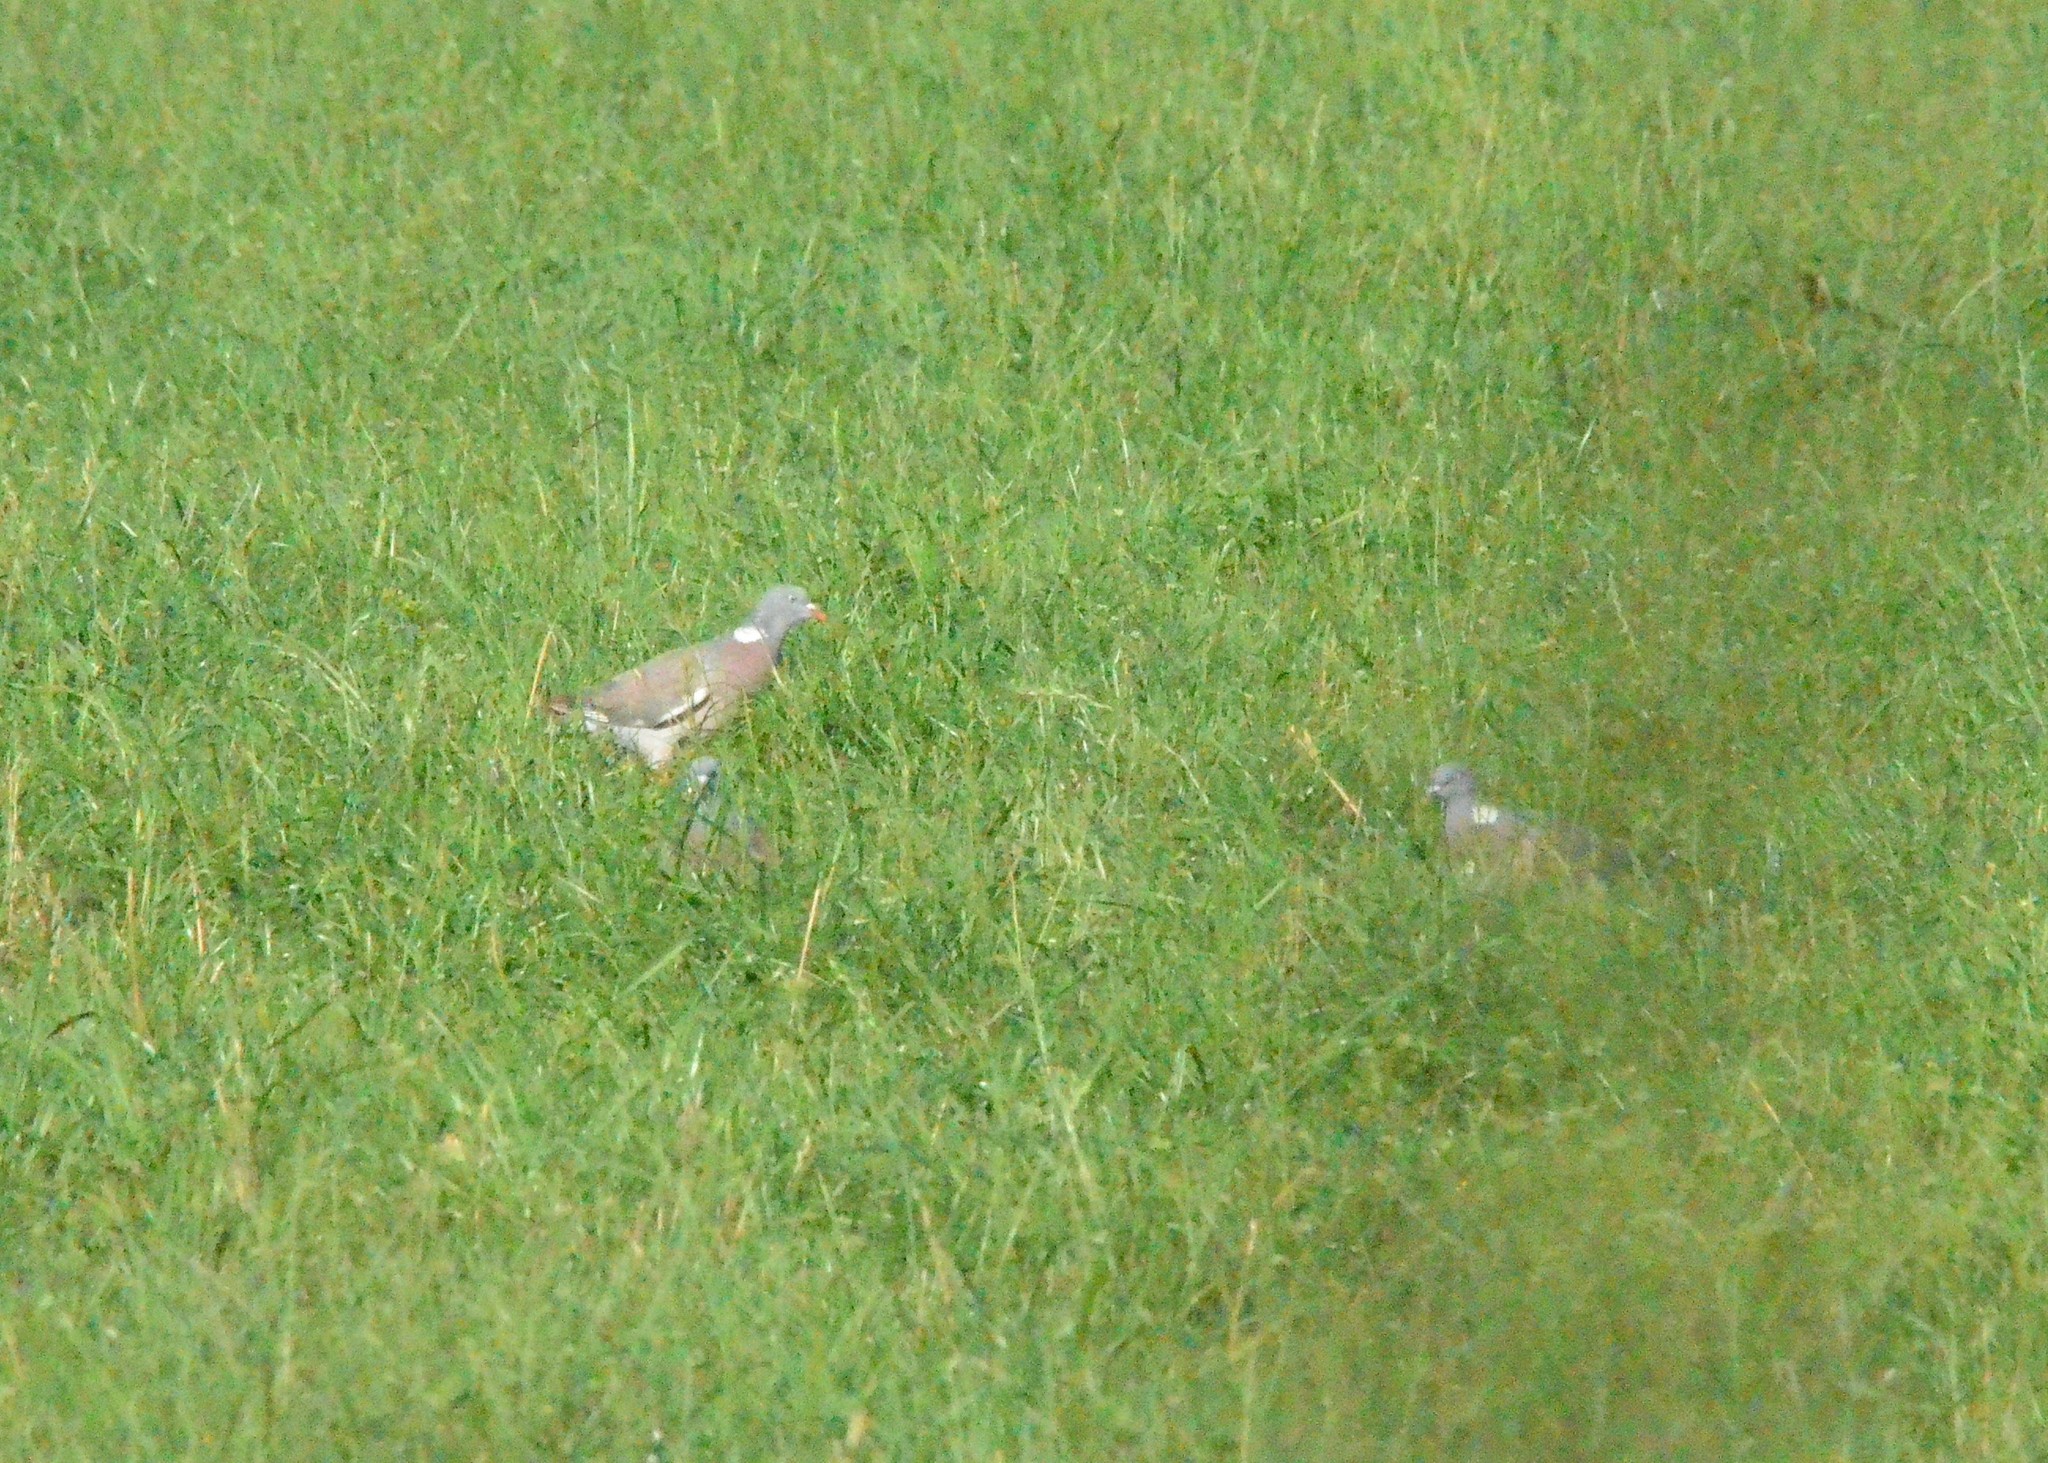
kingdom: Animalia
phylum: Chordata
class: Aves
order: Columbiformes
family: Columbidae
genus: Columba
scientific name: Columba palumbus
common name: Common wood pigeon
